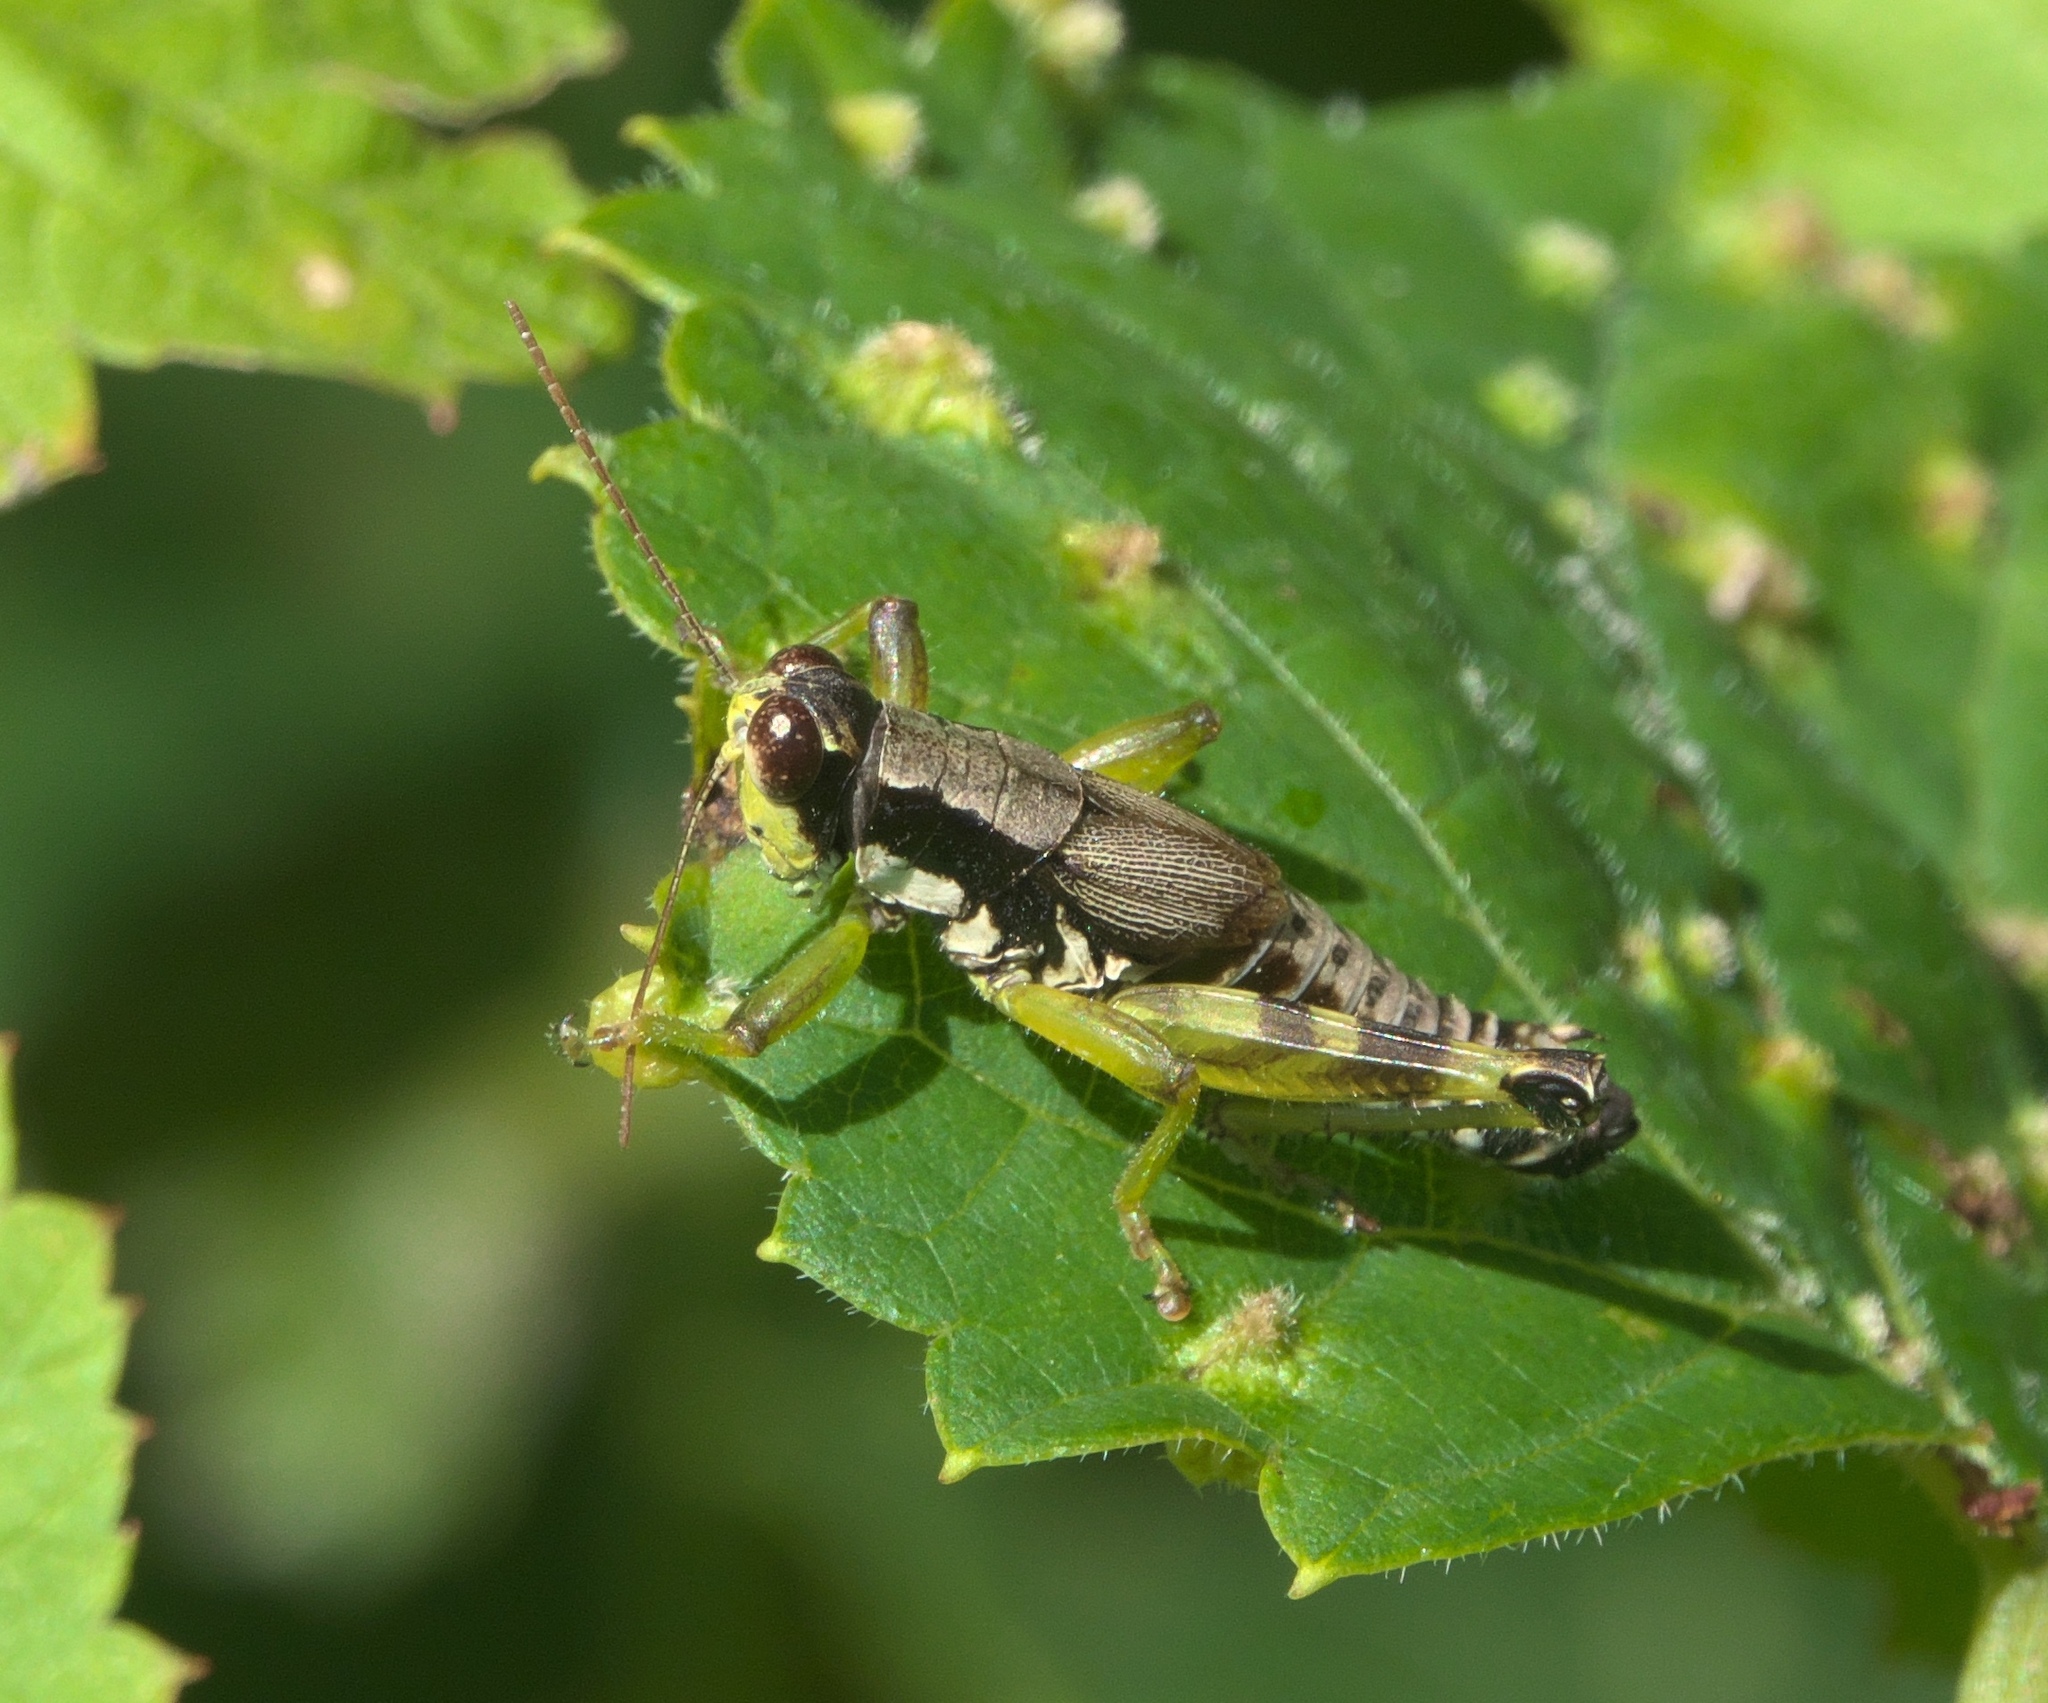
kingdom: Animalia
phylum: Arthropoda
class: Insecta
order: Orthoptera
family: Acrididae
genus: Melanoplus
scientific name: Melanoplus viridipes
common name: Green-legged locust
